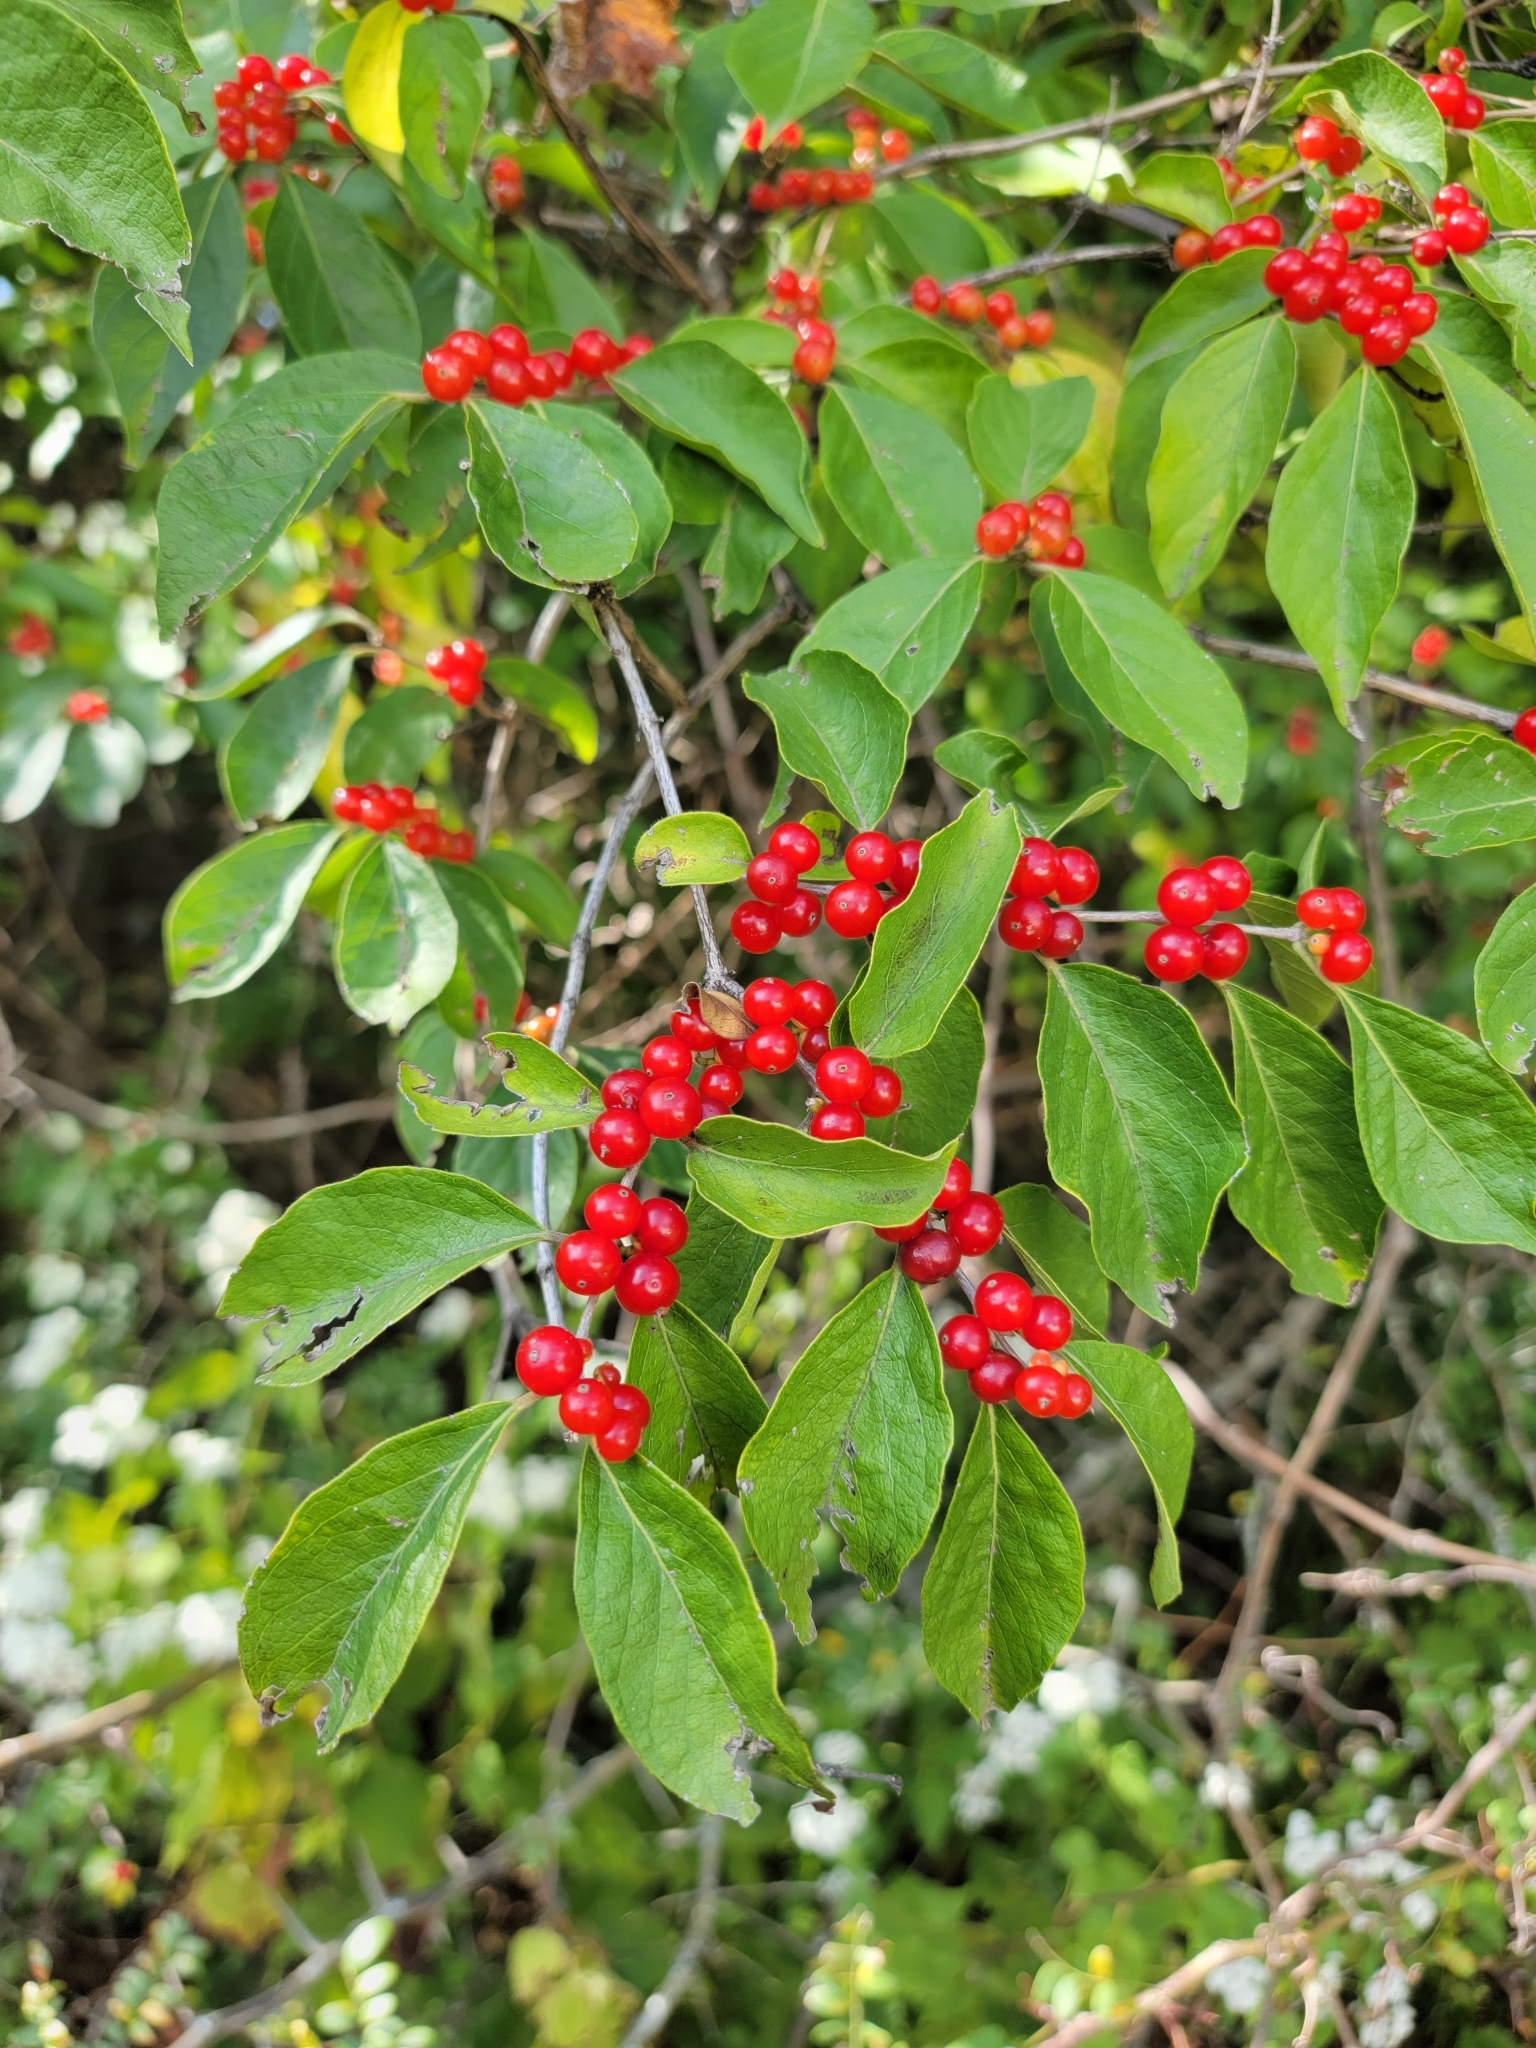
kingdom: Plantae
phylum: Tracheophyta
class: Magnoliopsida
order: Dipsacales
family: Caprifoliaceae
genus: Lonicera
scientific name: Lonicera maackii
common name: Amur honeysuckle
